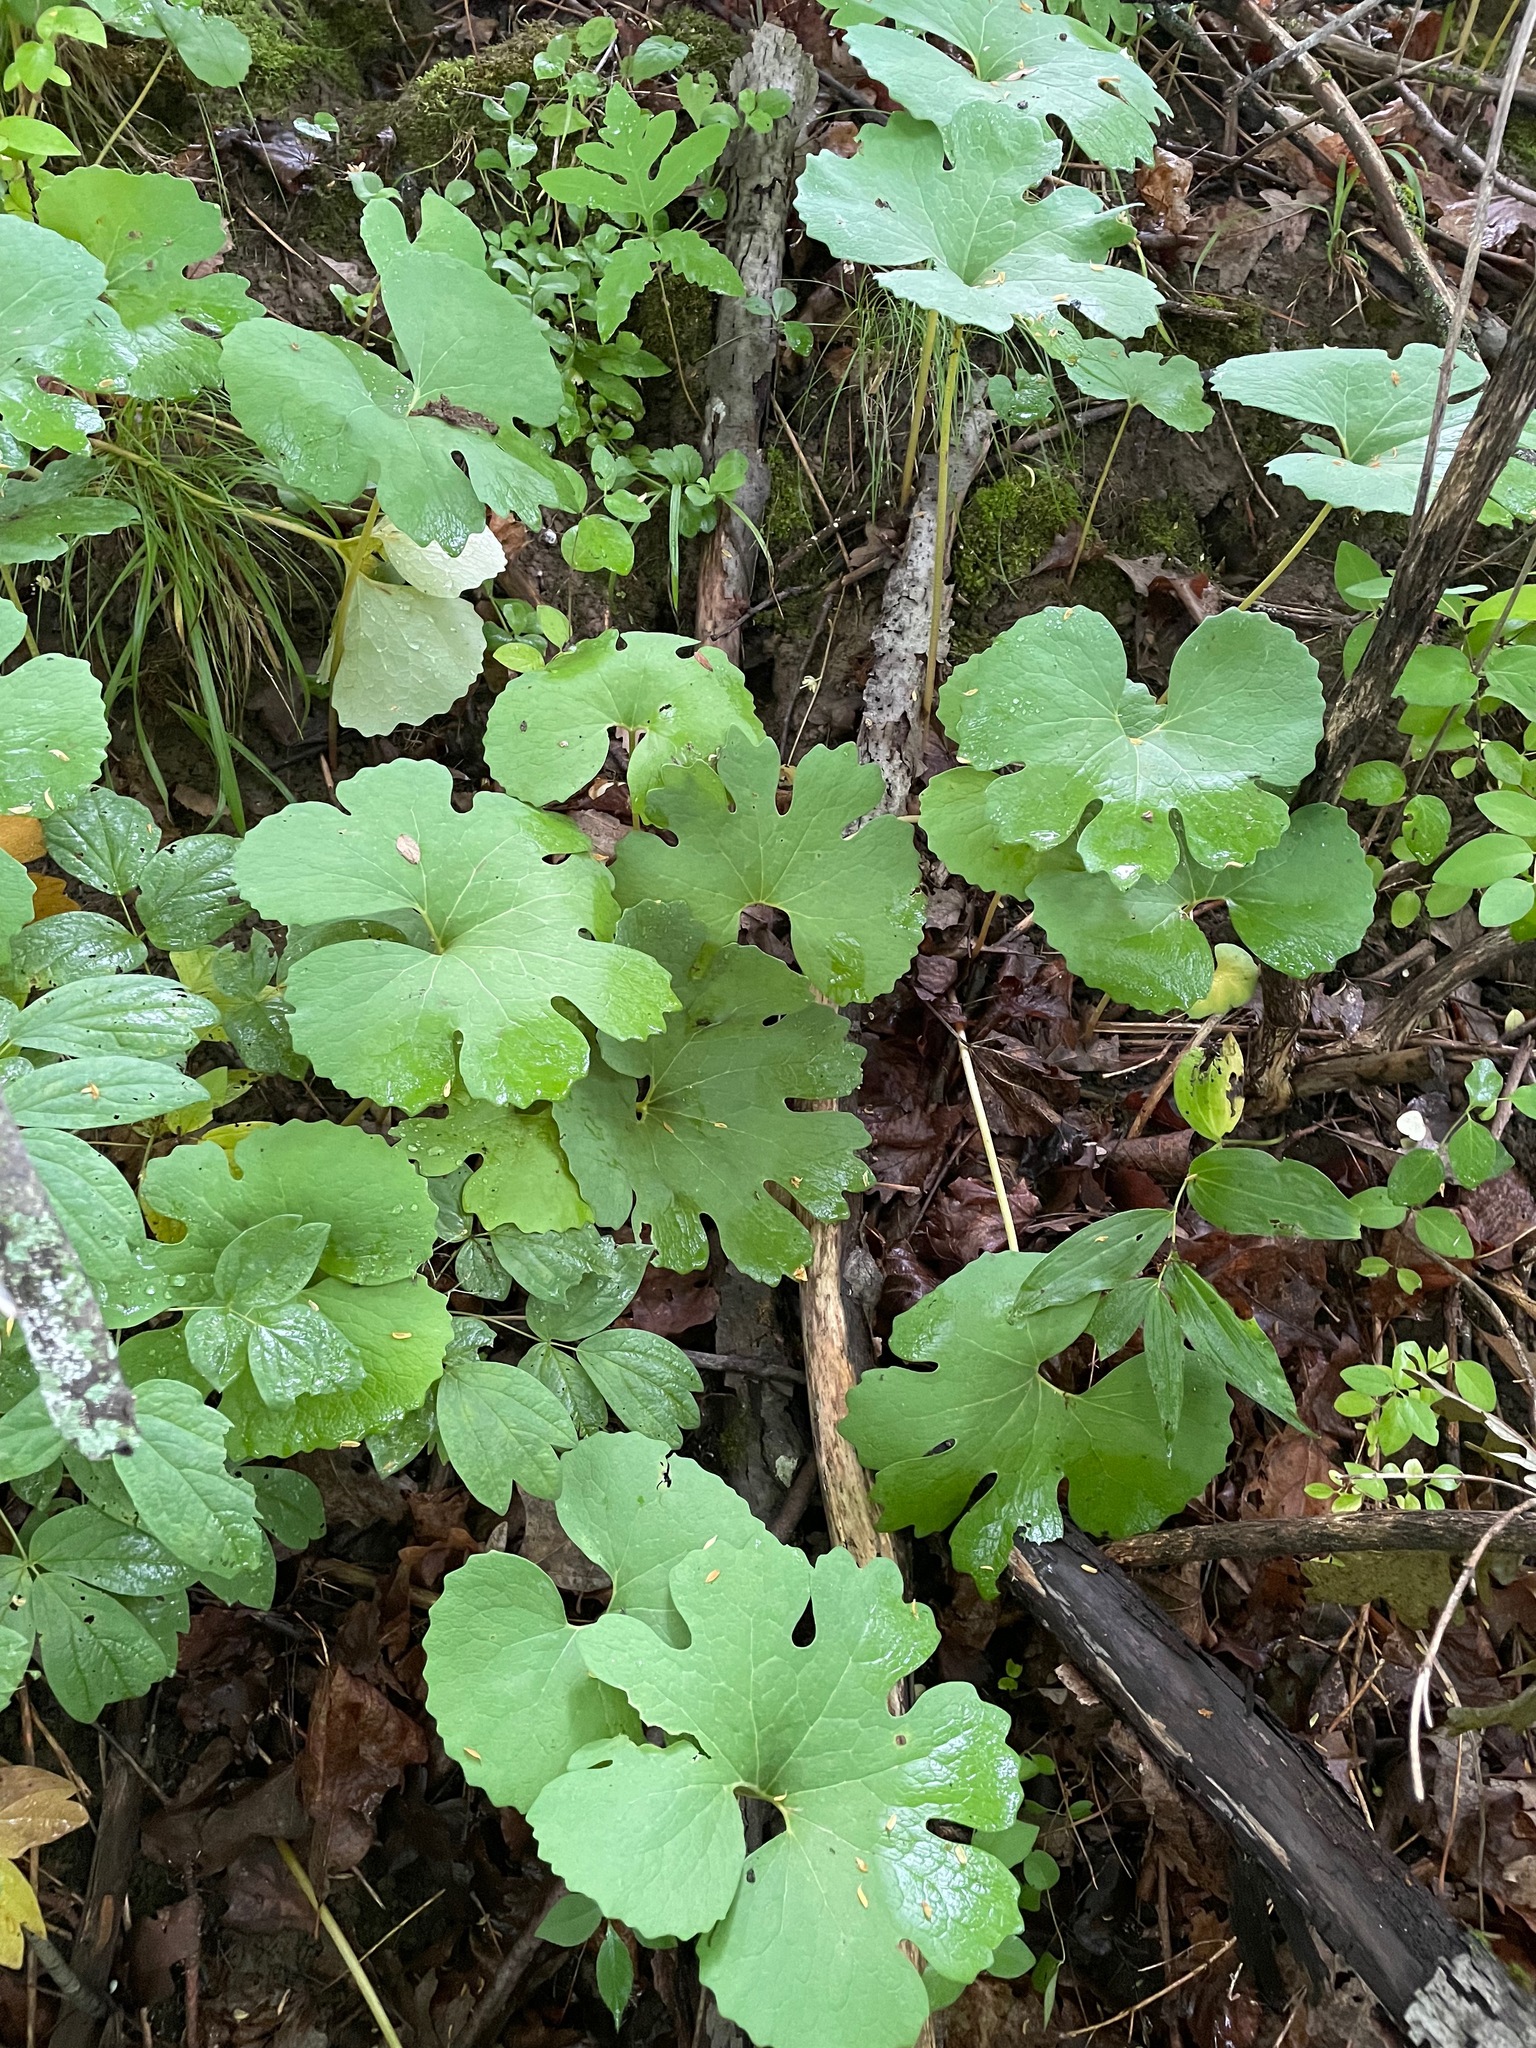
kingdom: Plantae
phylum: Tracheophyta
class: Magnoliopsida
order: Ranunculales
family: Papaveraceae
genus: Sanguinaria
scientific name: Sanguinaria canadensis
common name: Bloodroot
